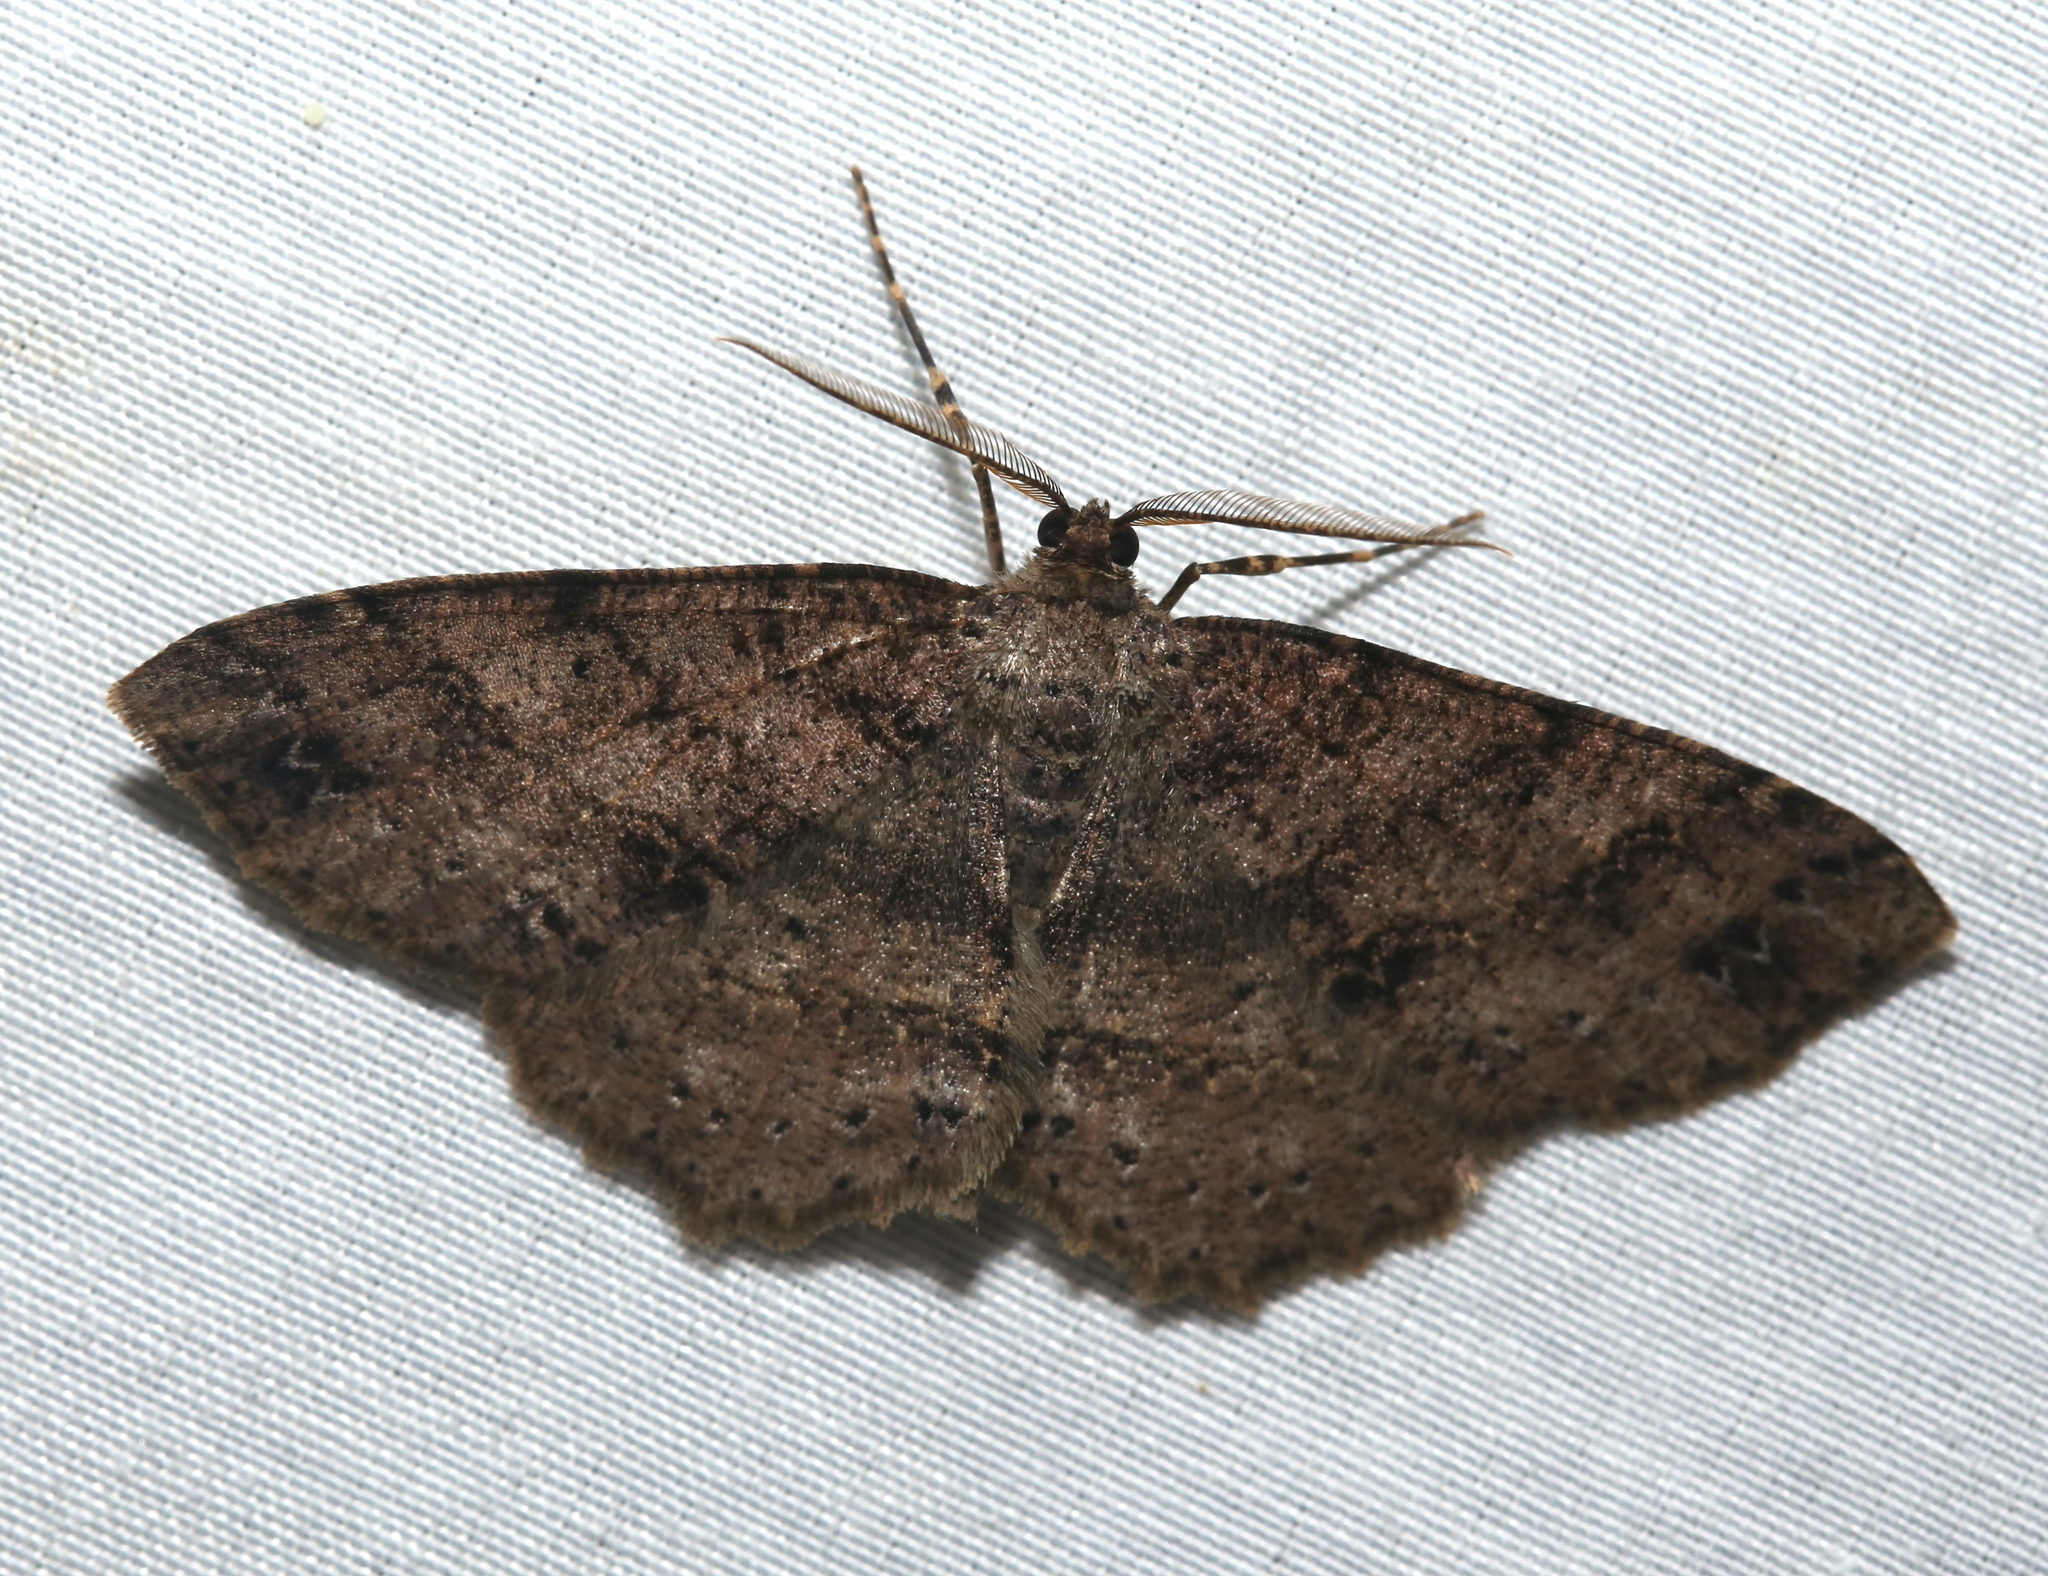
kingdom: Animalia
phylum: Arthropoda
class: Insecta
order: Lepidoptera
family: Geometridae
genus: Melanolophia
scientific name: Melanolophia canadaria
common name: Canadian melanolophia
